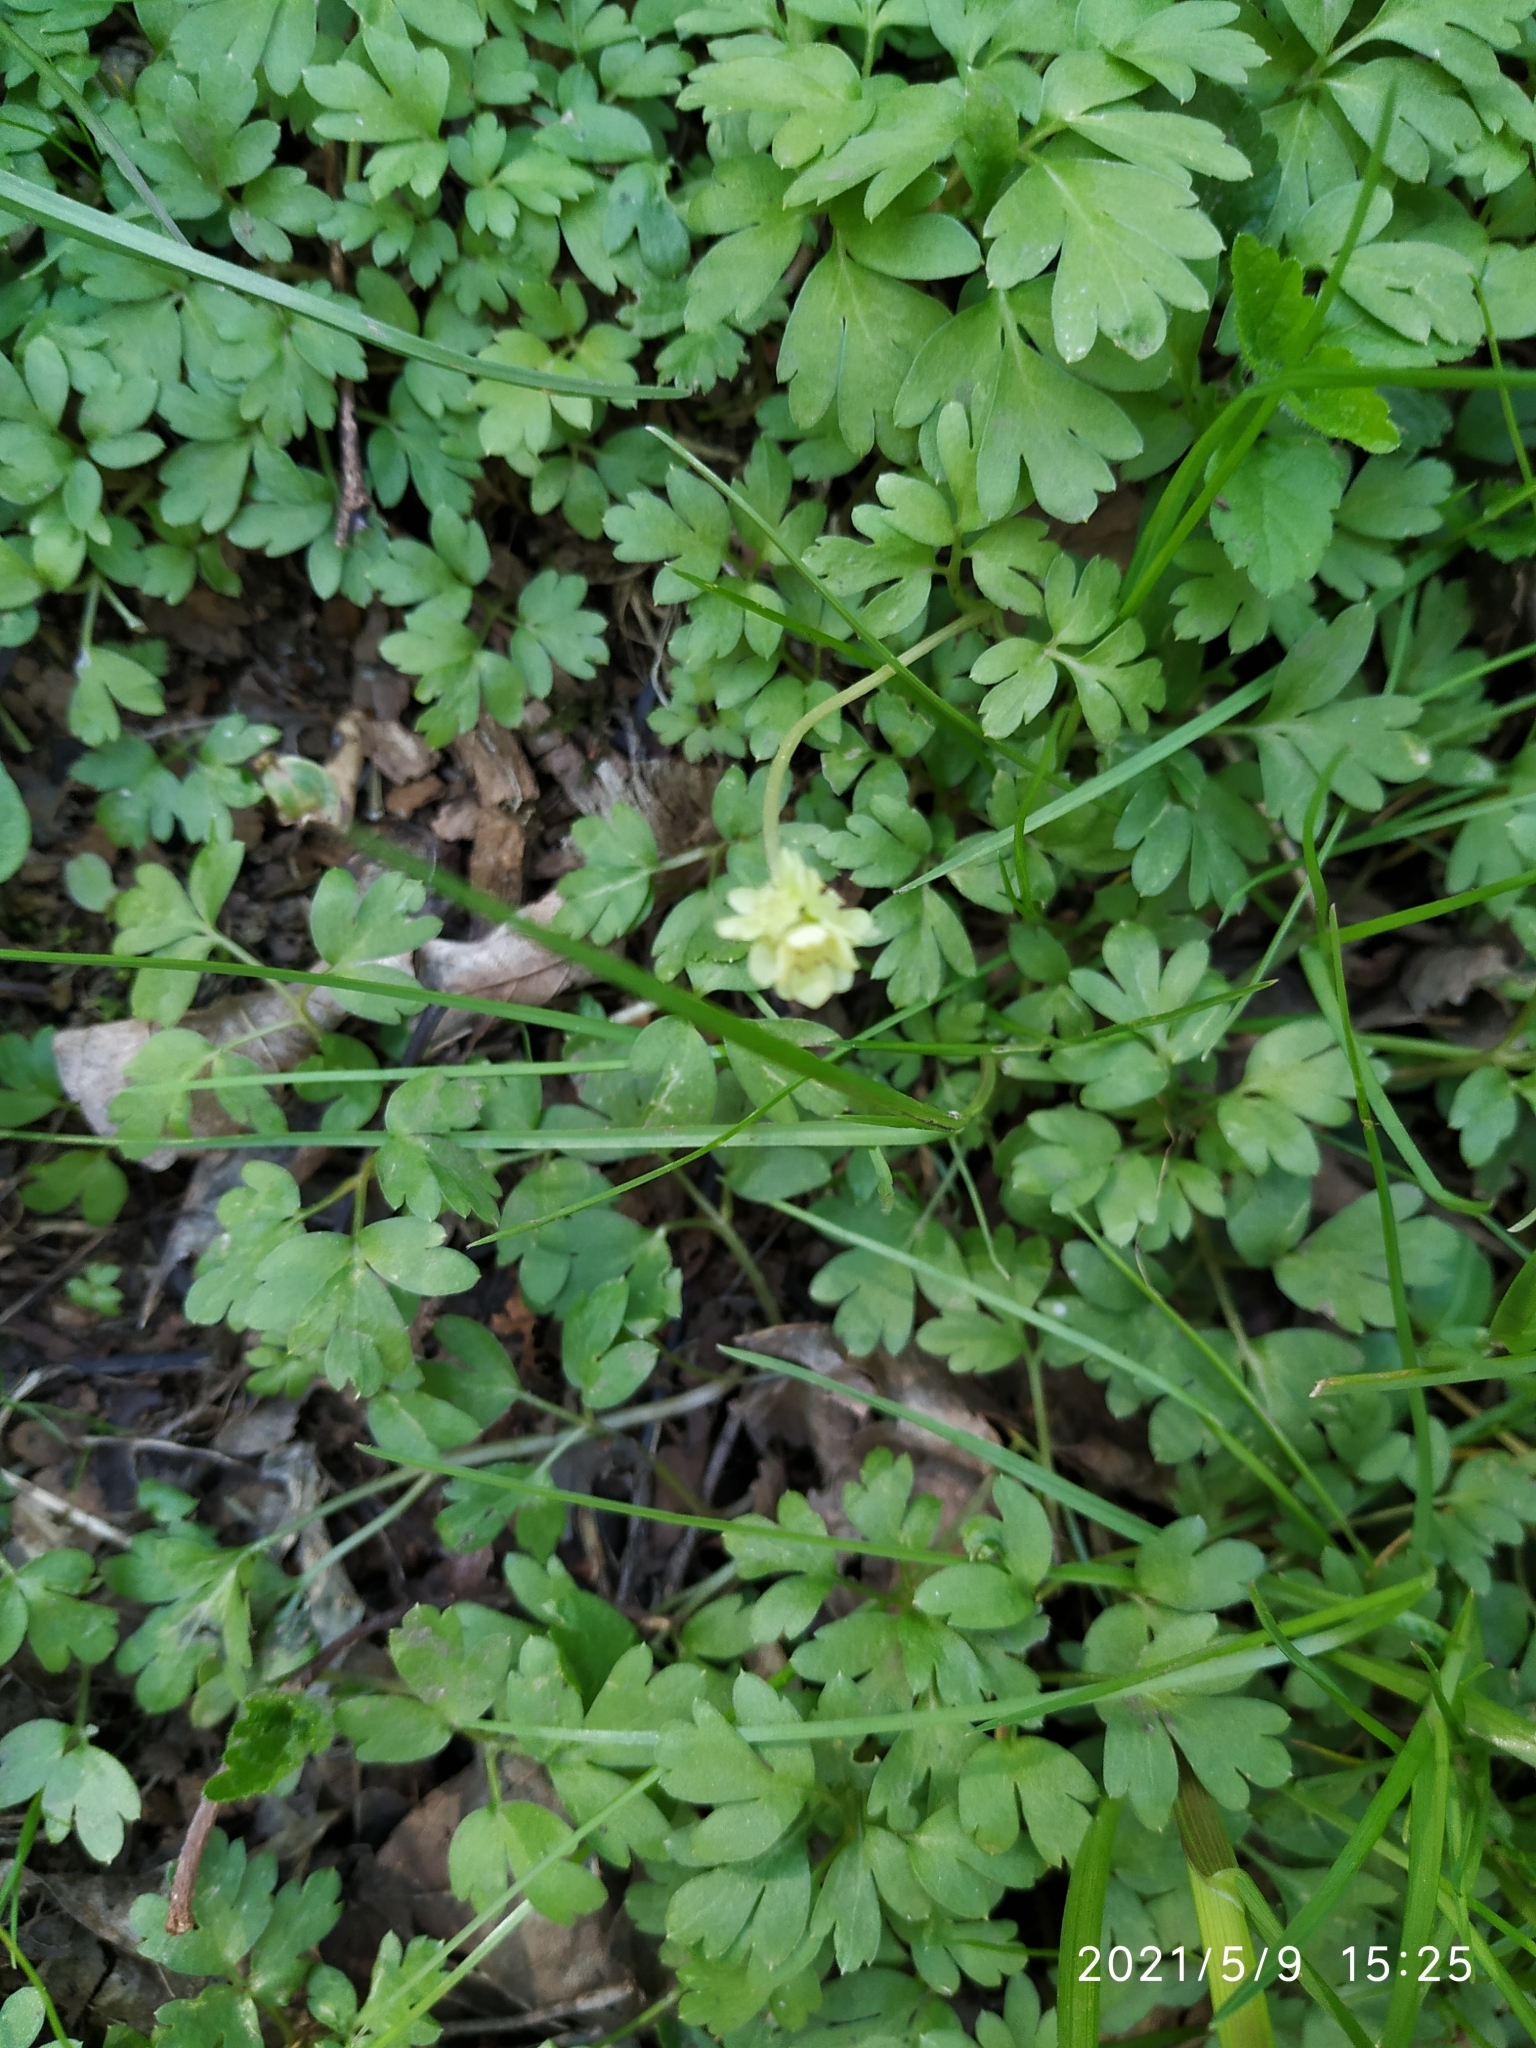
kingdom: Plantae
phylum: Tracheophyta
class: Magnoliopsida
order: Dipsacales
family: Viburnaceae
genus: Adoxa
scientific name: Adoxa moschatellina
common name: Moschatel
